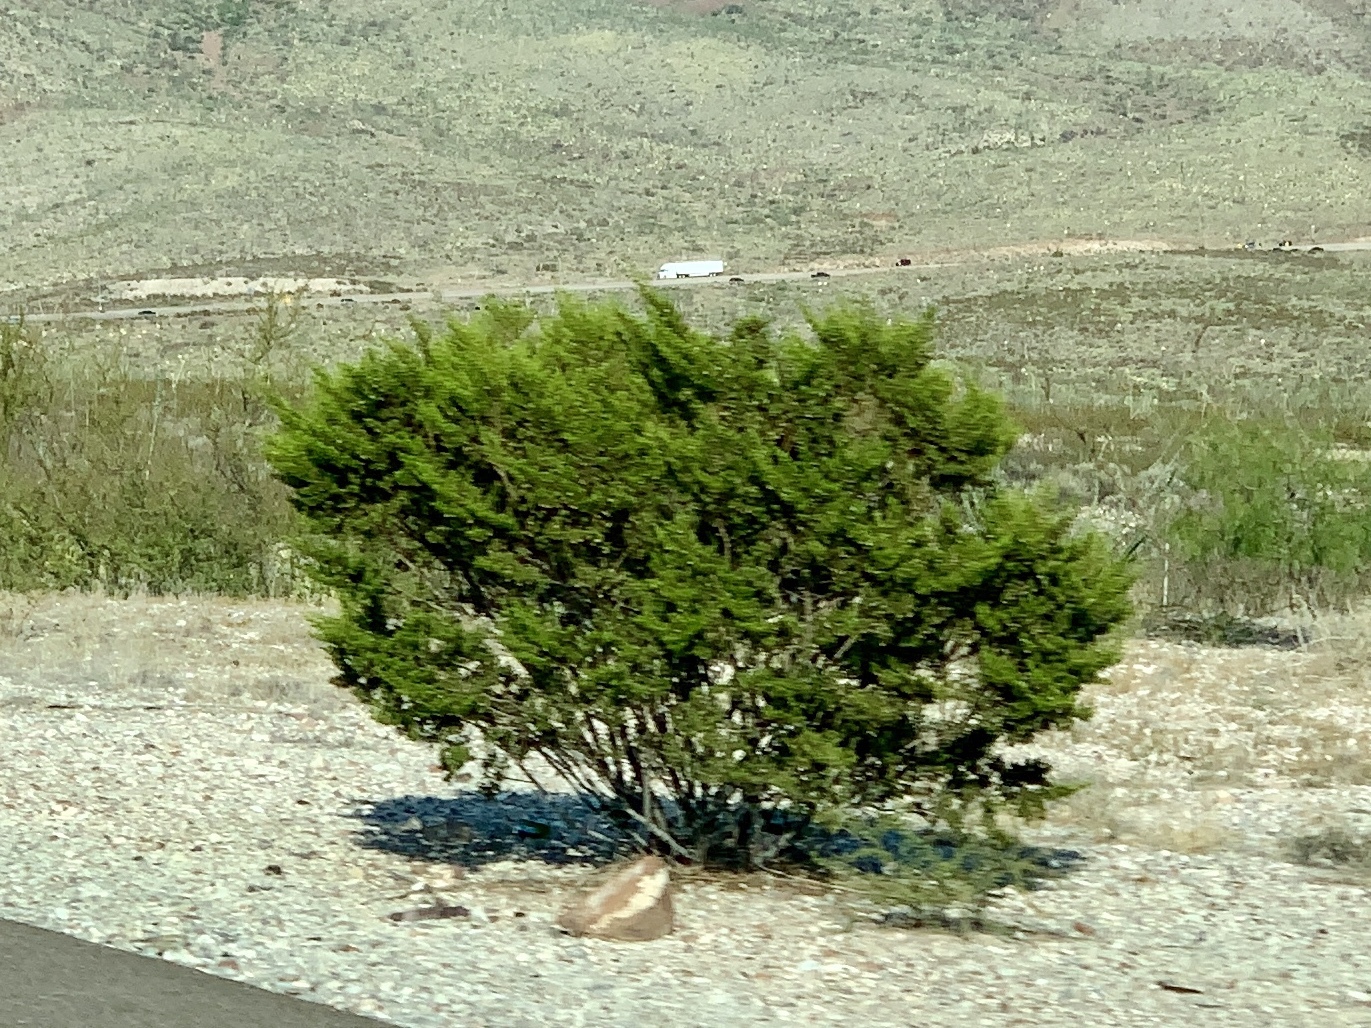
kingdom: Plantae
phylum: Tracheophyta
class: Magnoliopsida
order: Zygophyllales
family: Zygophyllaceae
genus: Larrea
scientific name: Larrea tridentata
